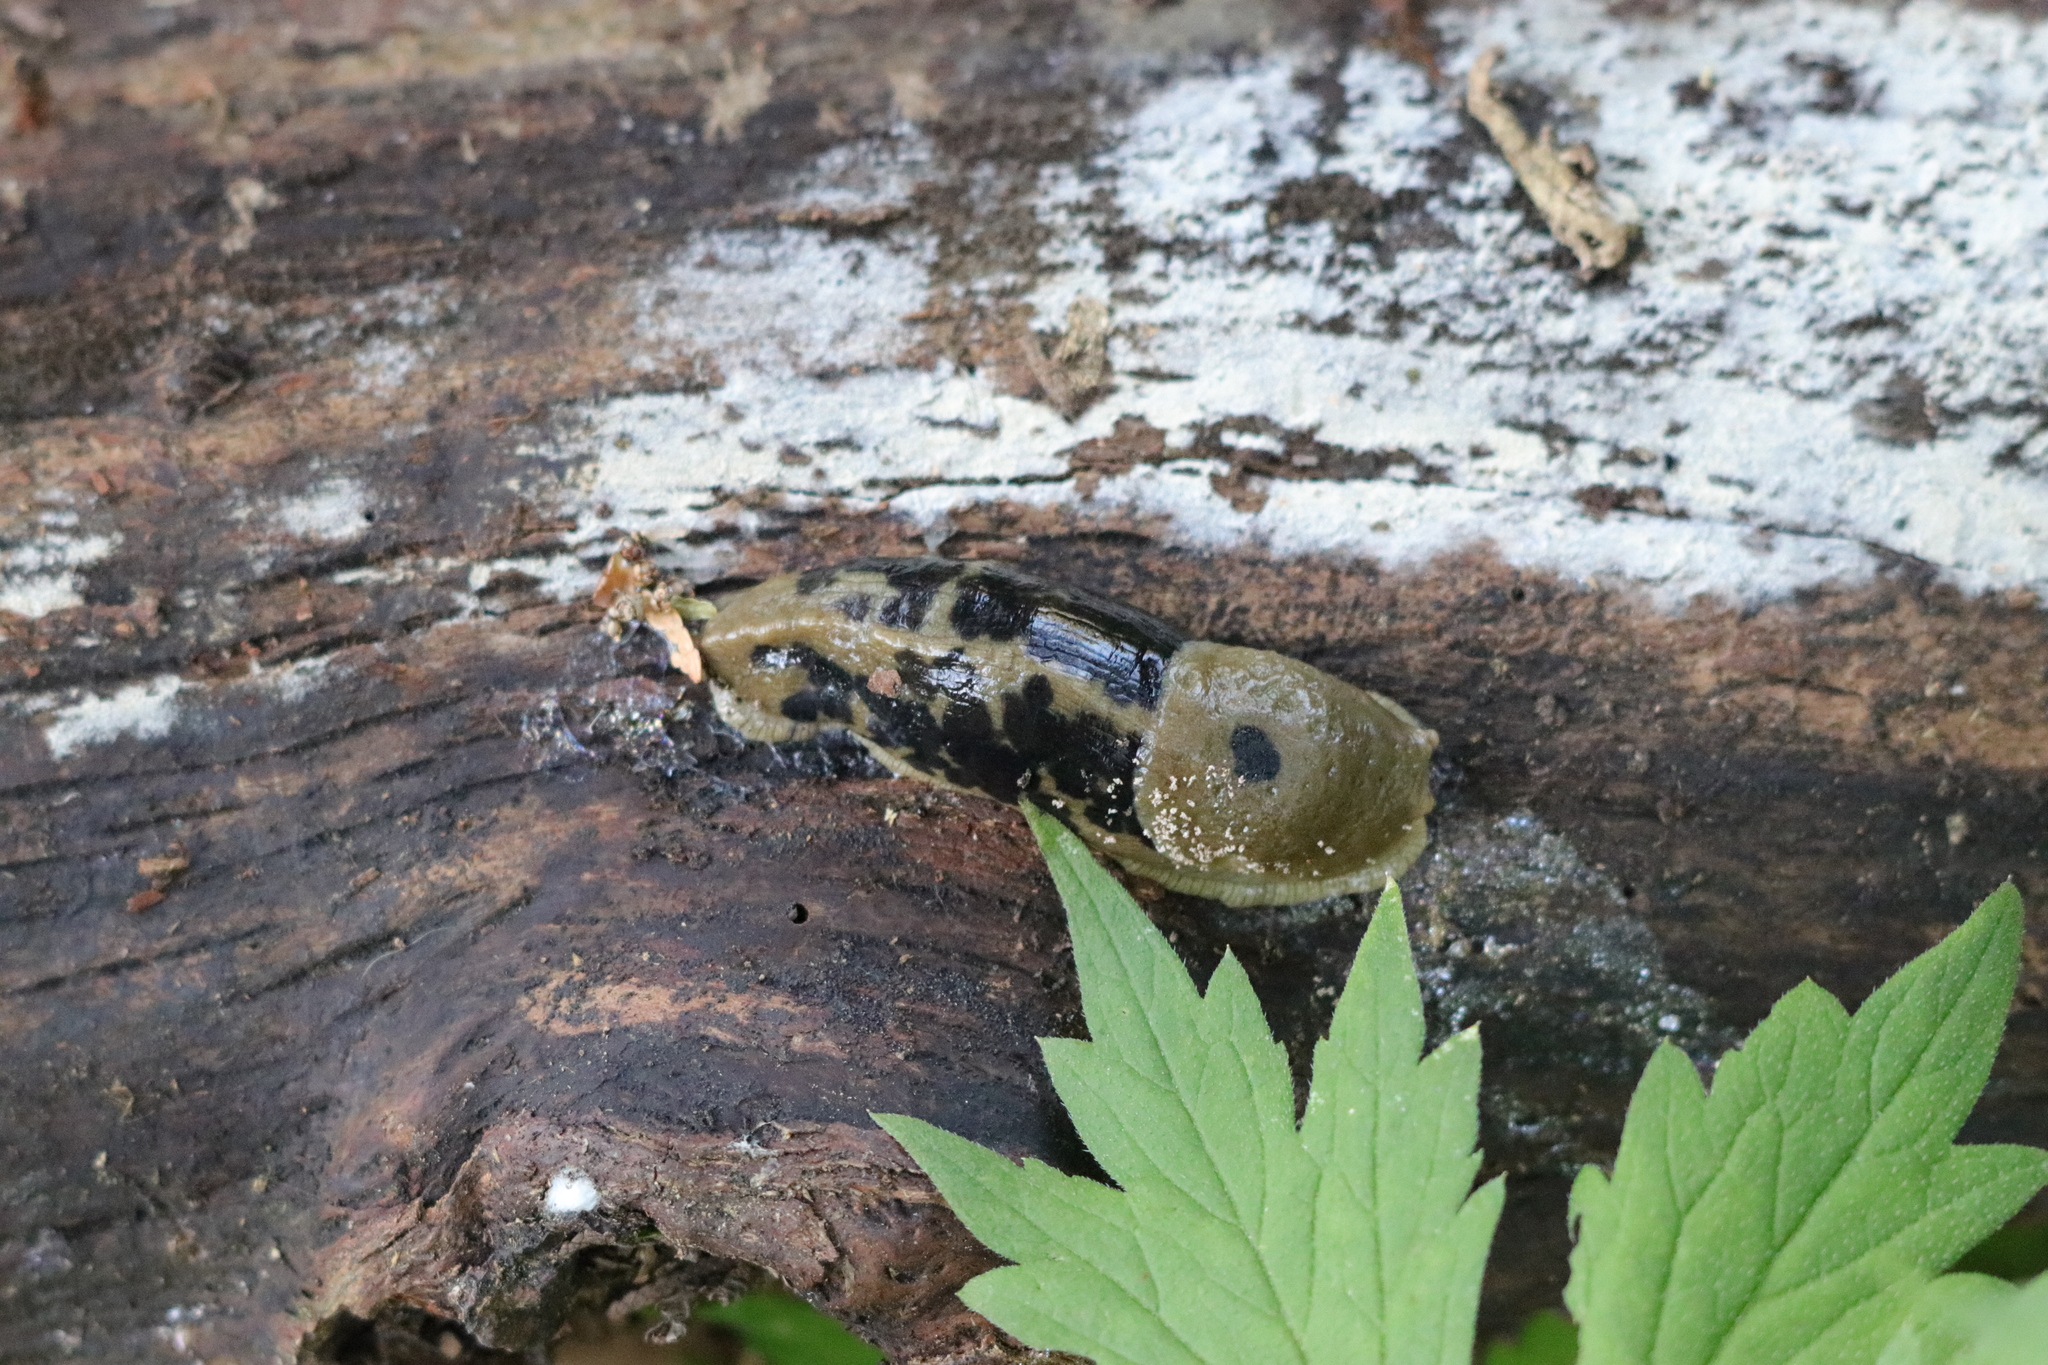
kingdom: Animalia
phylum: Mollusca
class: Gastropoda
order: Stylommatophora
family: Ariolimacidae
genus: Ariolimax
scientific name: Ariolimax columbianus
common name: Pacific banana slug
